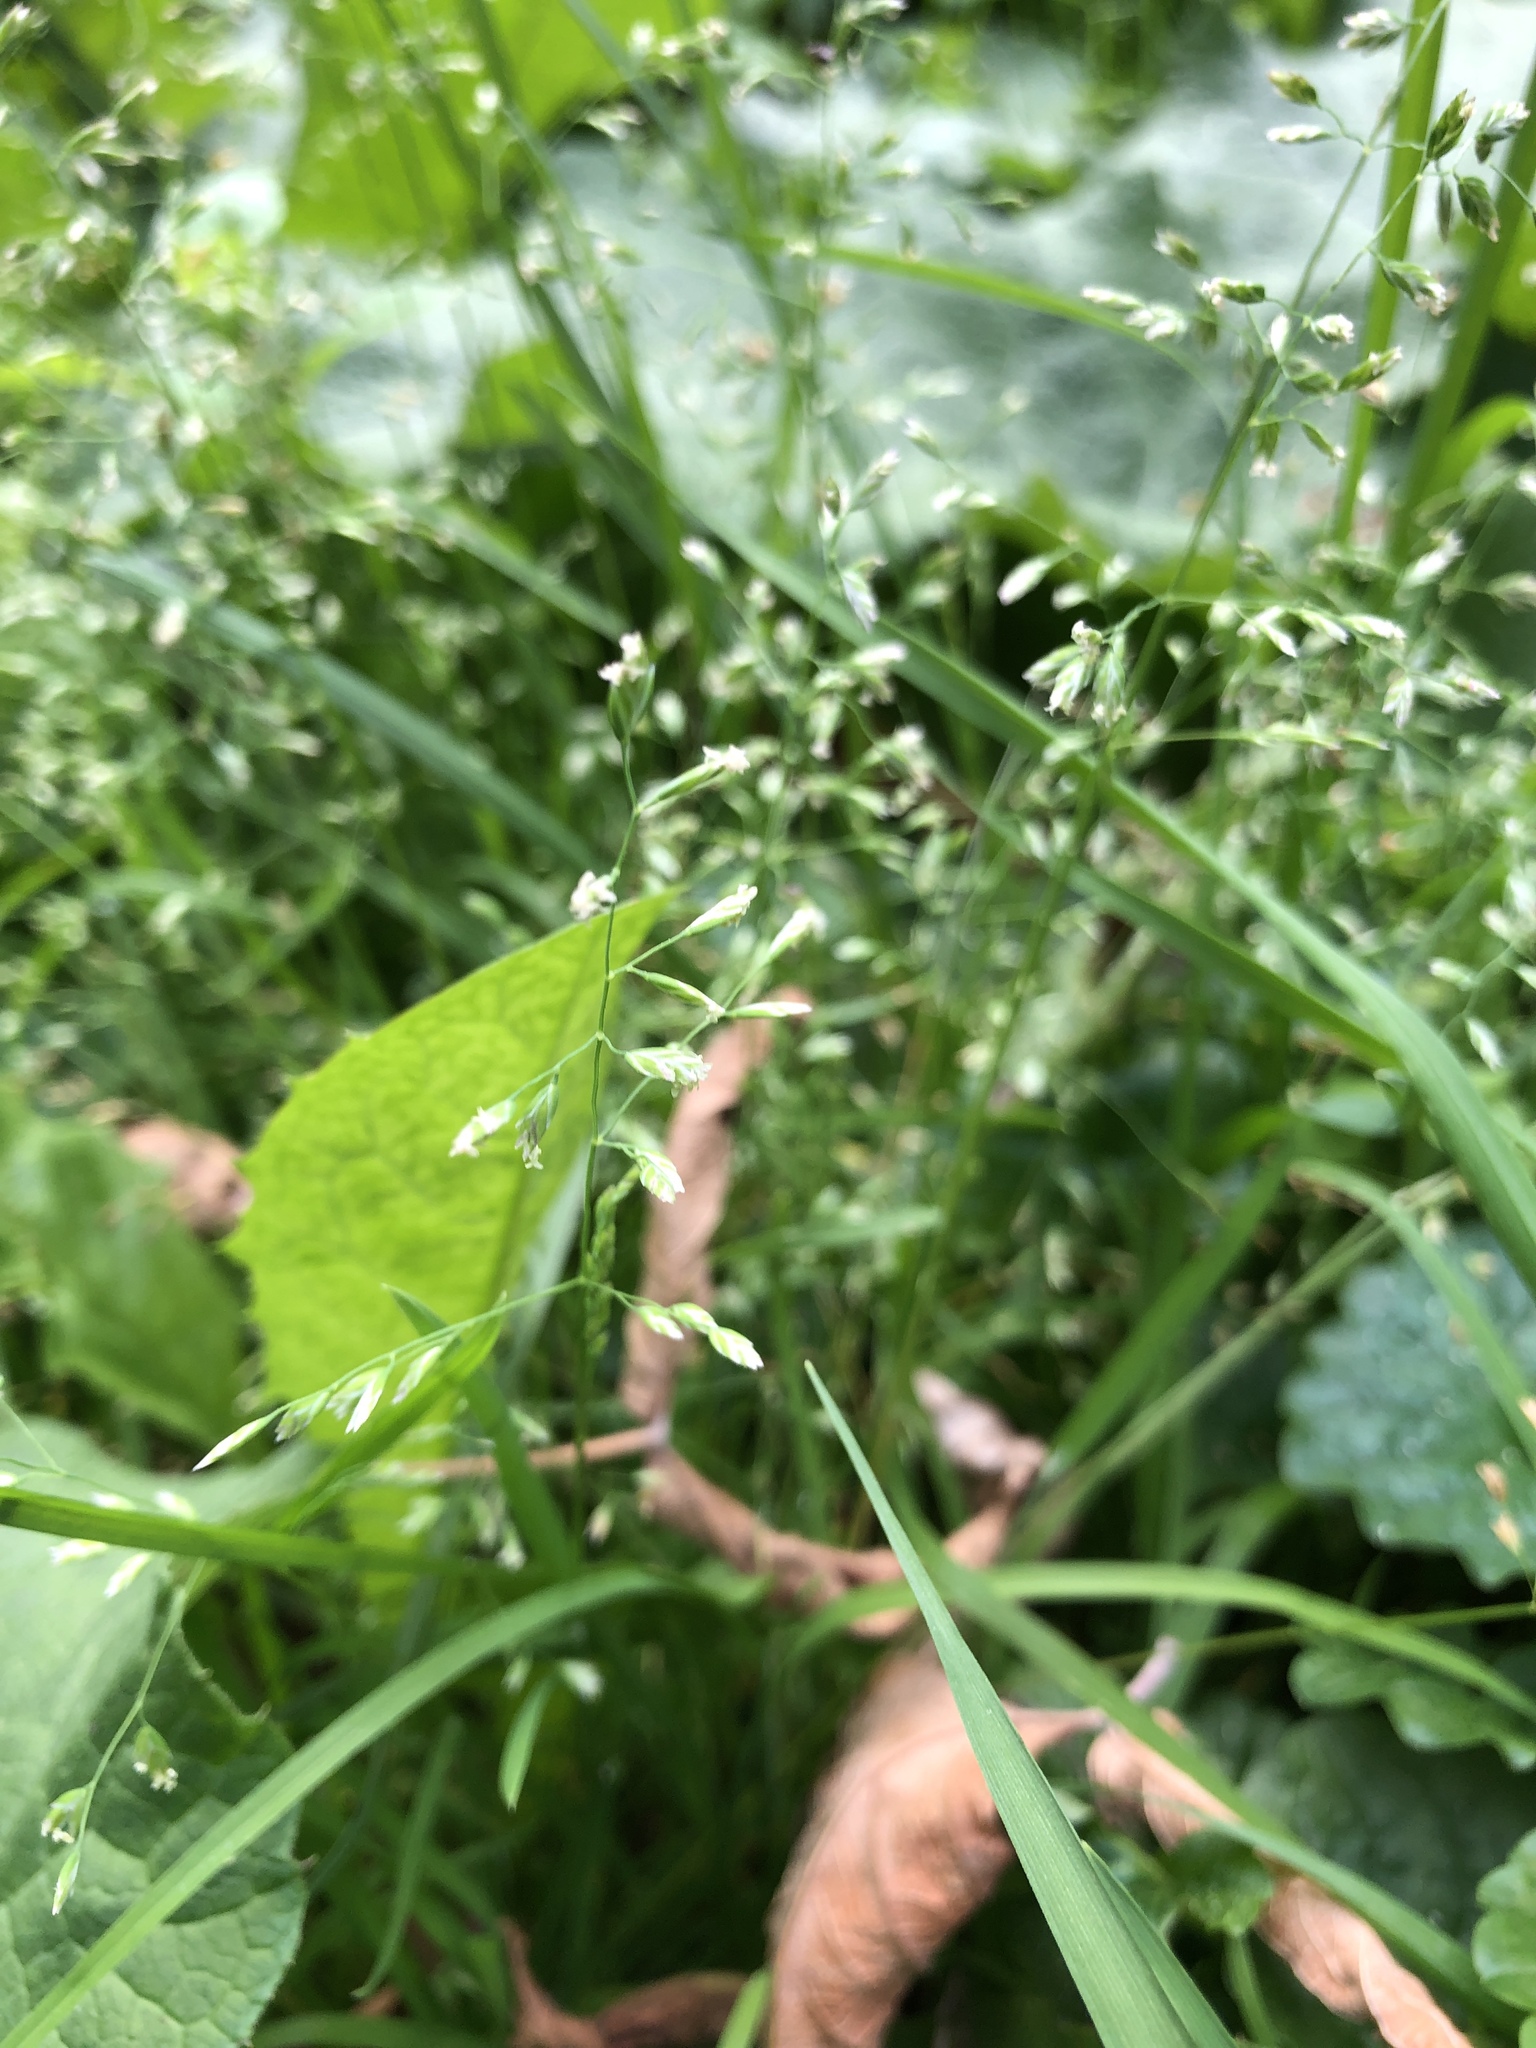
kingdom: Plantae
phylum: Tracheophyta
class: Liliopsida
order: Poales
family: Poaceae
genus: Poa
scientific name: Poa annua
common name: Annual bluegrass
